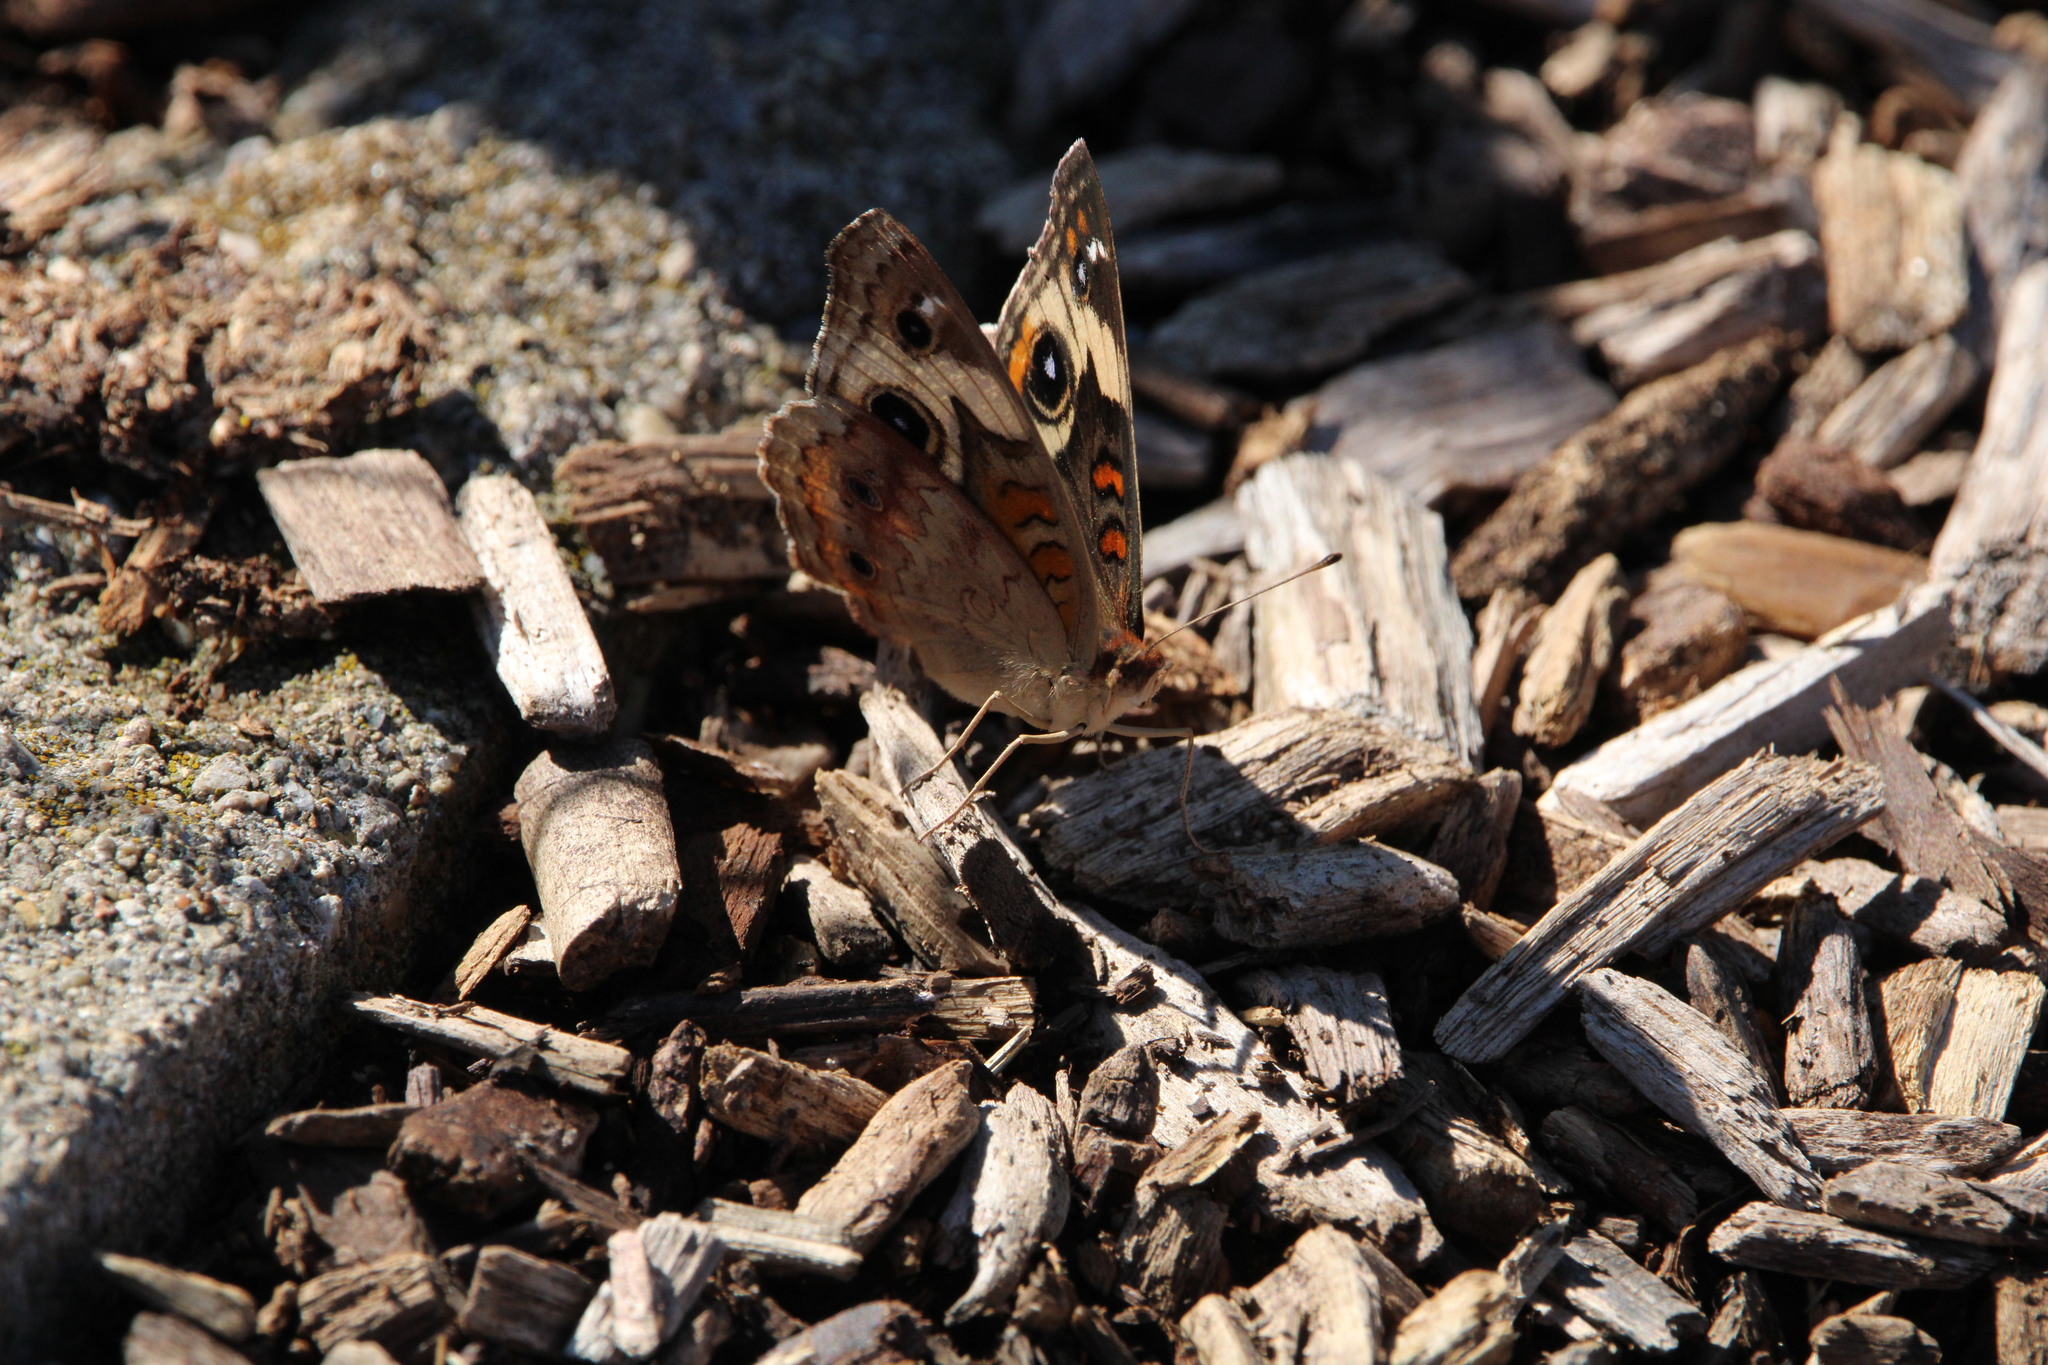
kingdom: Animalia
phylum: Arthropoda
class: Insecta
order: Lepidoptera
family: Nymphalidae
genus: Junonia
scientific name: Junonia coenia
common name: Common buckeye
